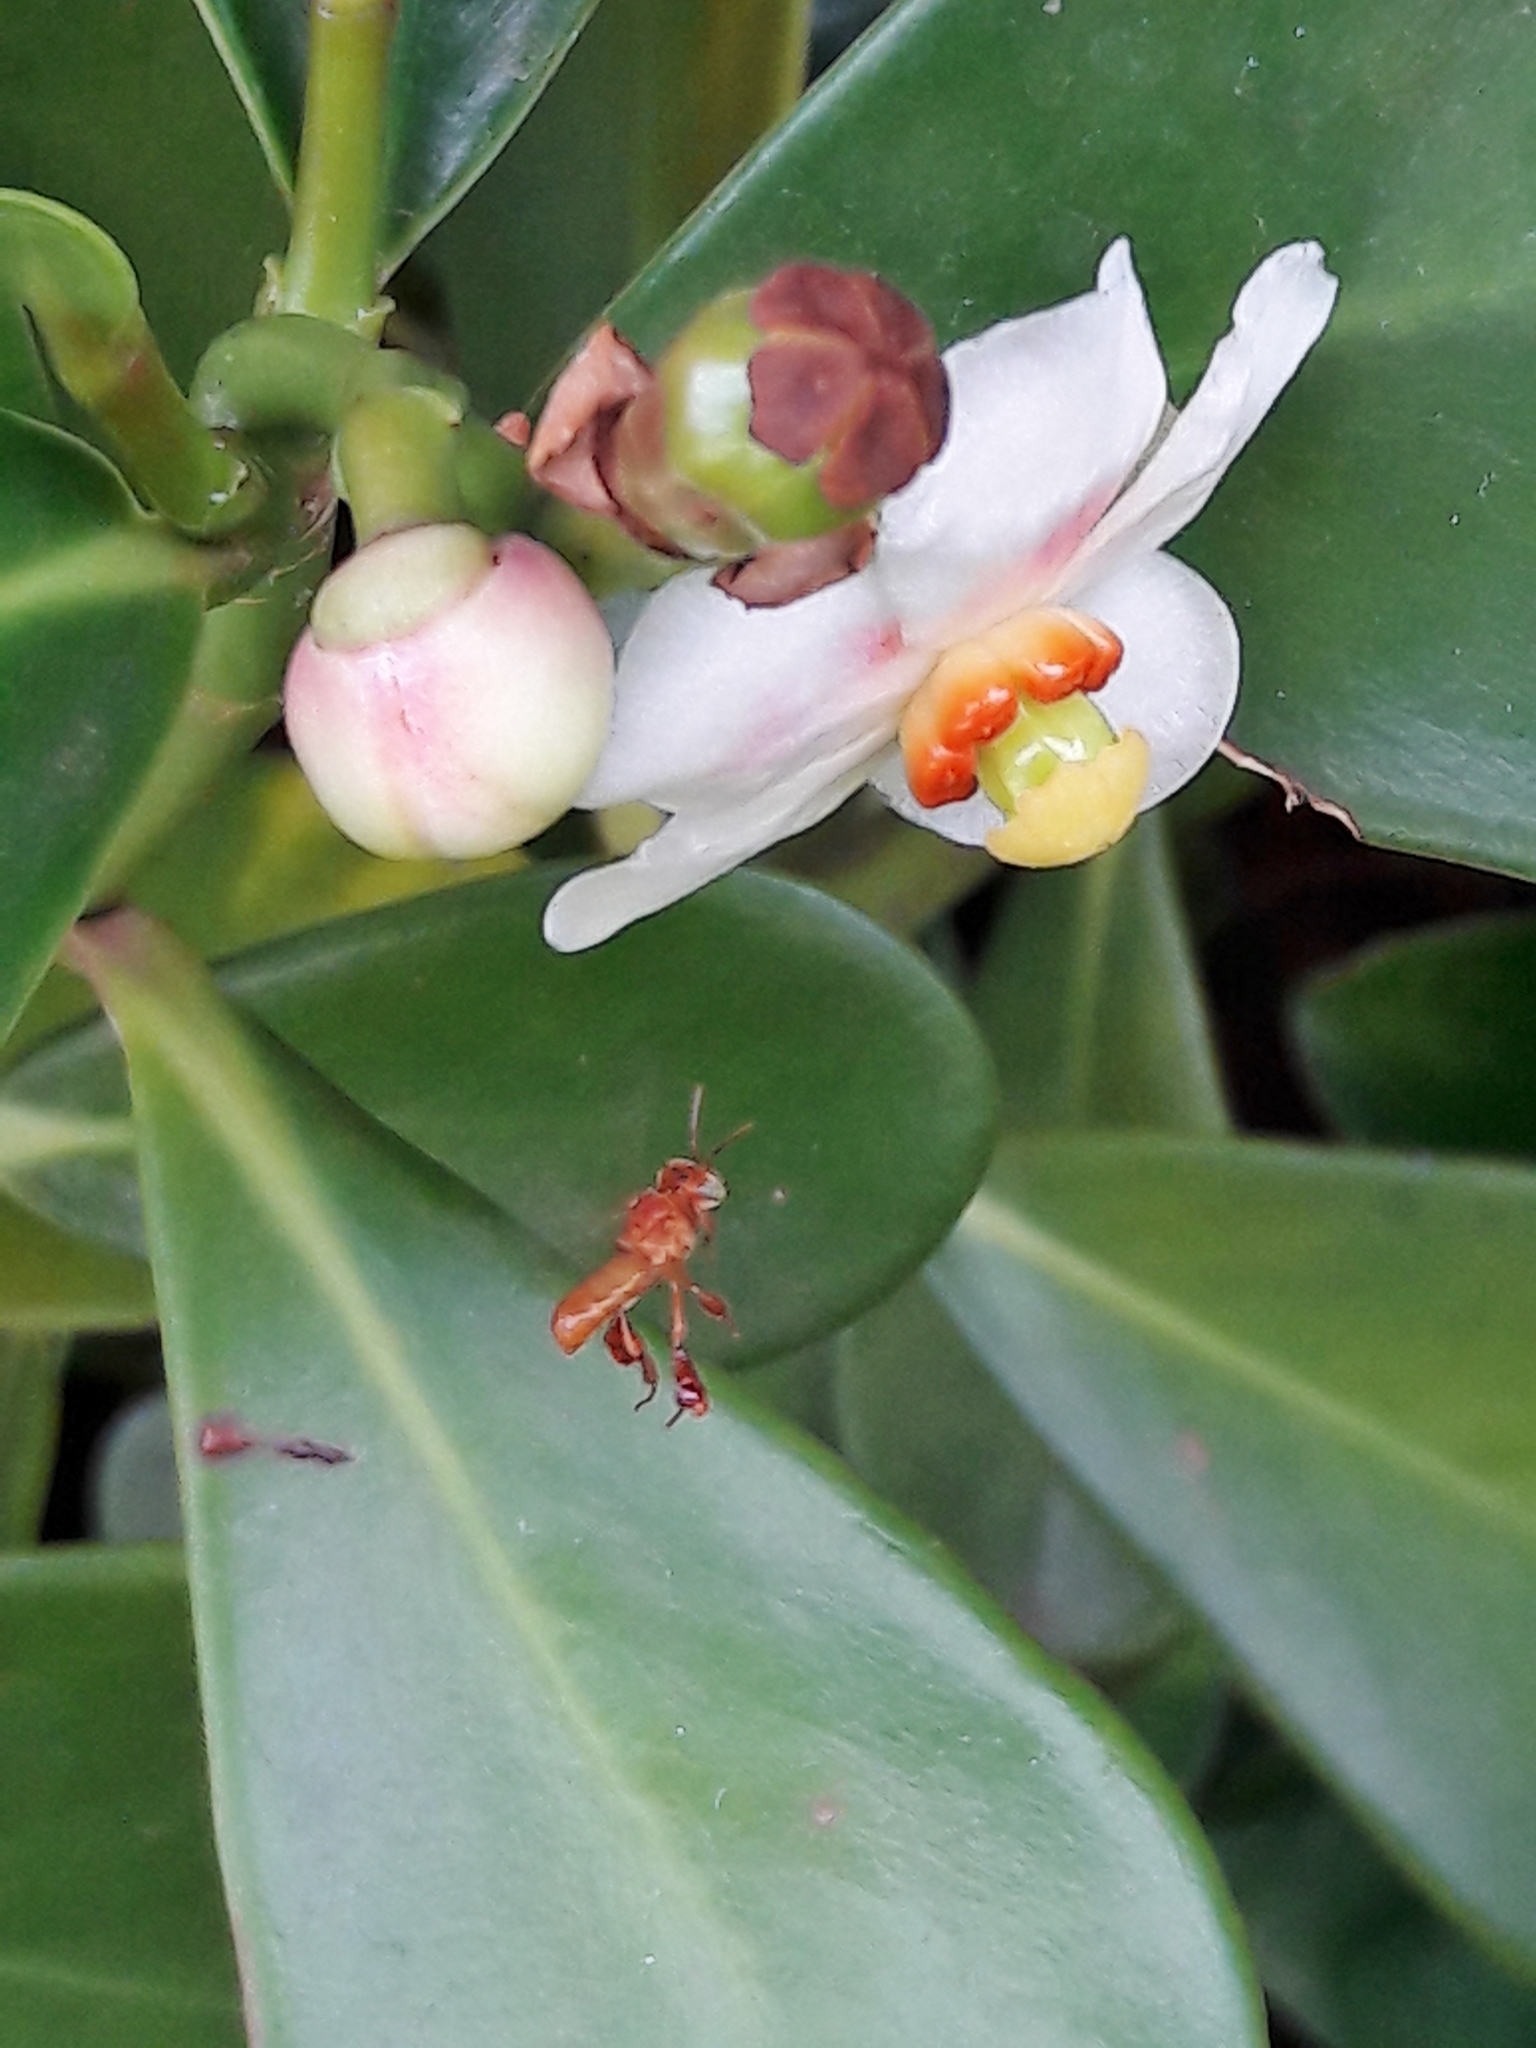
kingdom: Animalia
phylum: Arthropoda
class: Insecta
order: Hymenoptera
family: Apidae
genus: Trigona
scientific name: Trigona pallens
